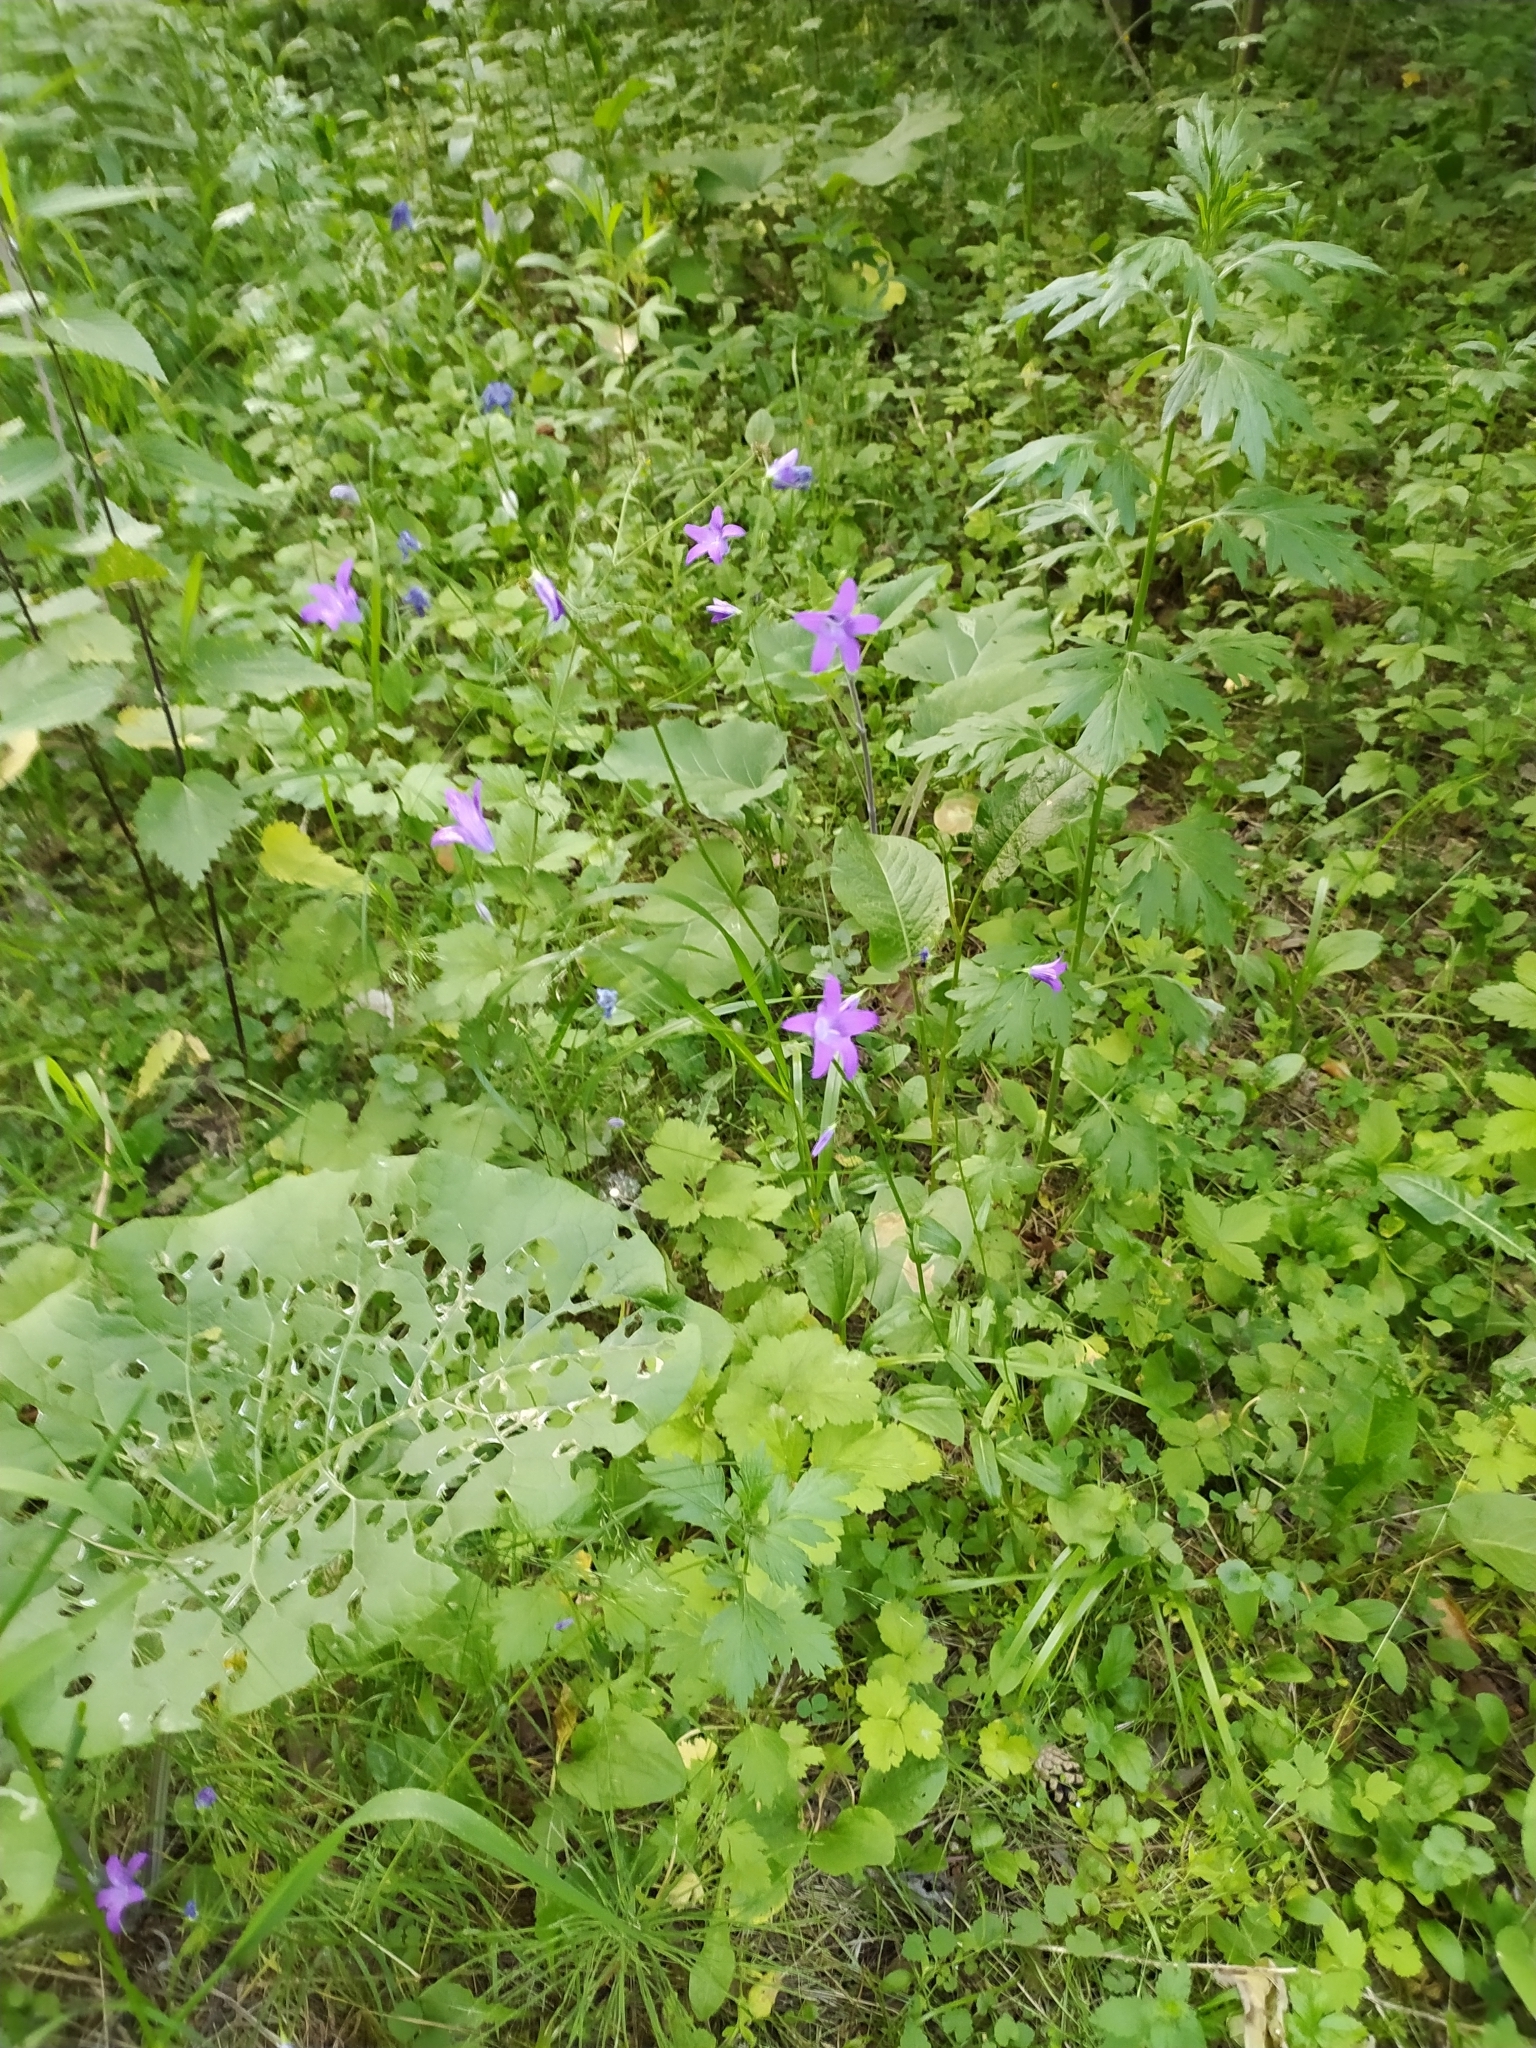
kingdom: Plantae
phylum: Tracheophyta
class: Magnoliopsida
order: Asterales
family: Campanulaceae
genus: Campanula
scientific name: Campanula patula
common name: Spreading bellflower
